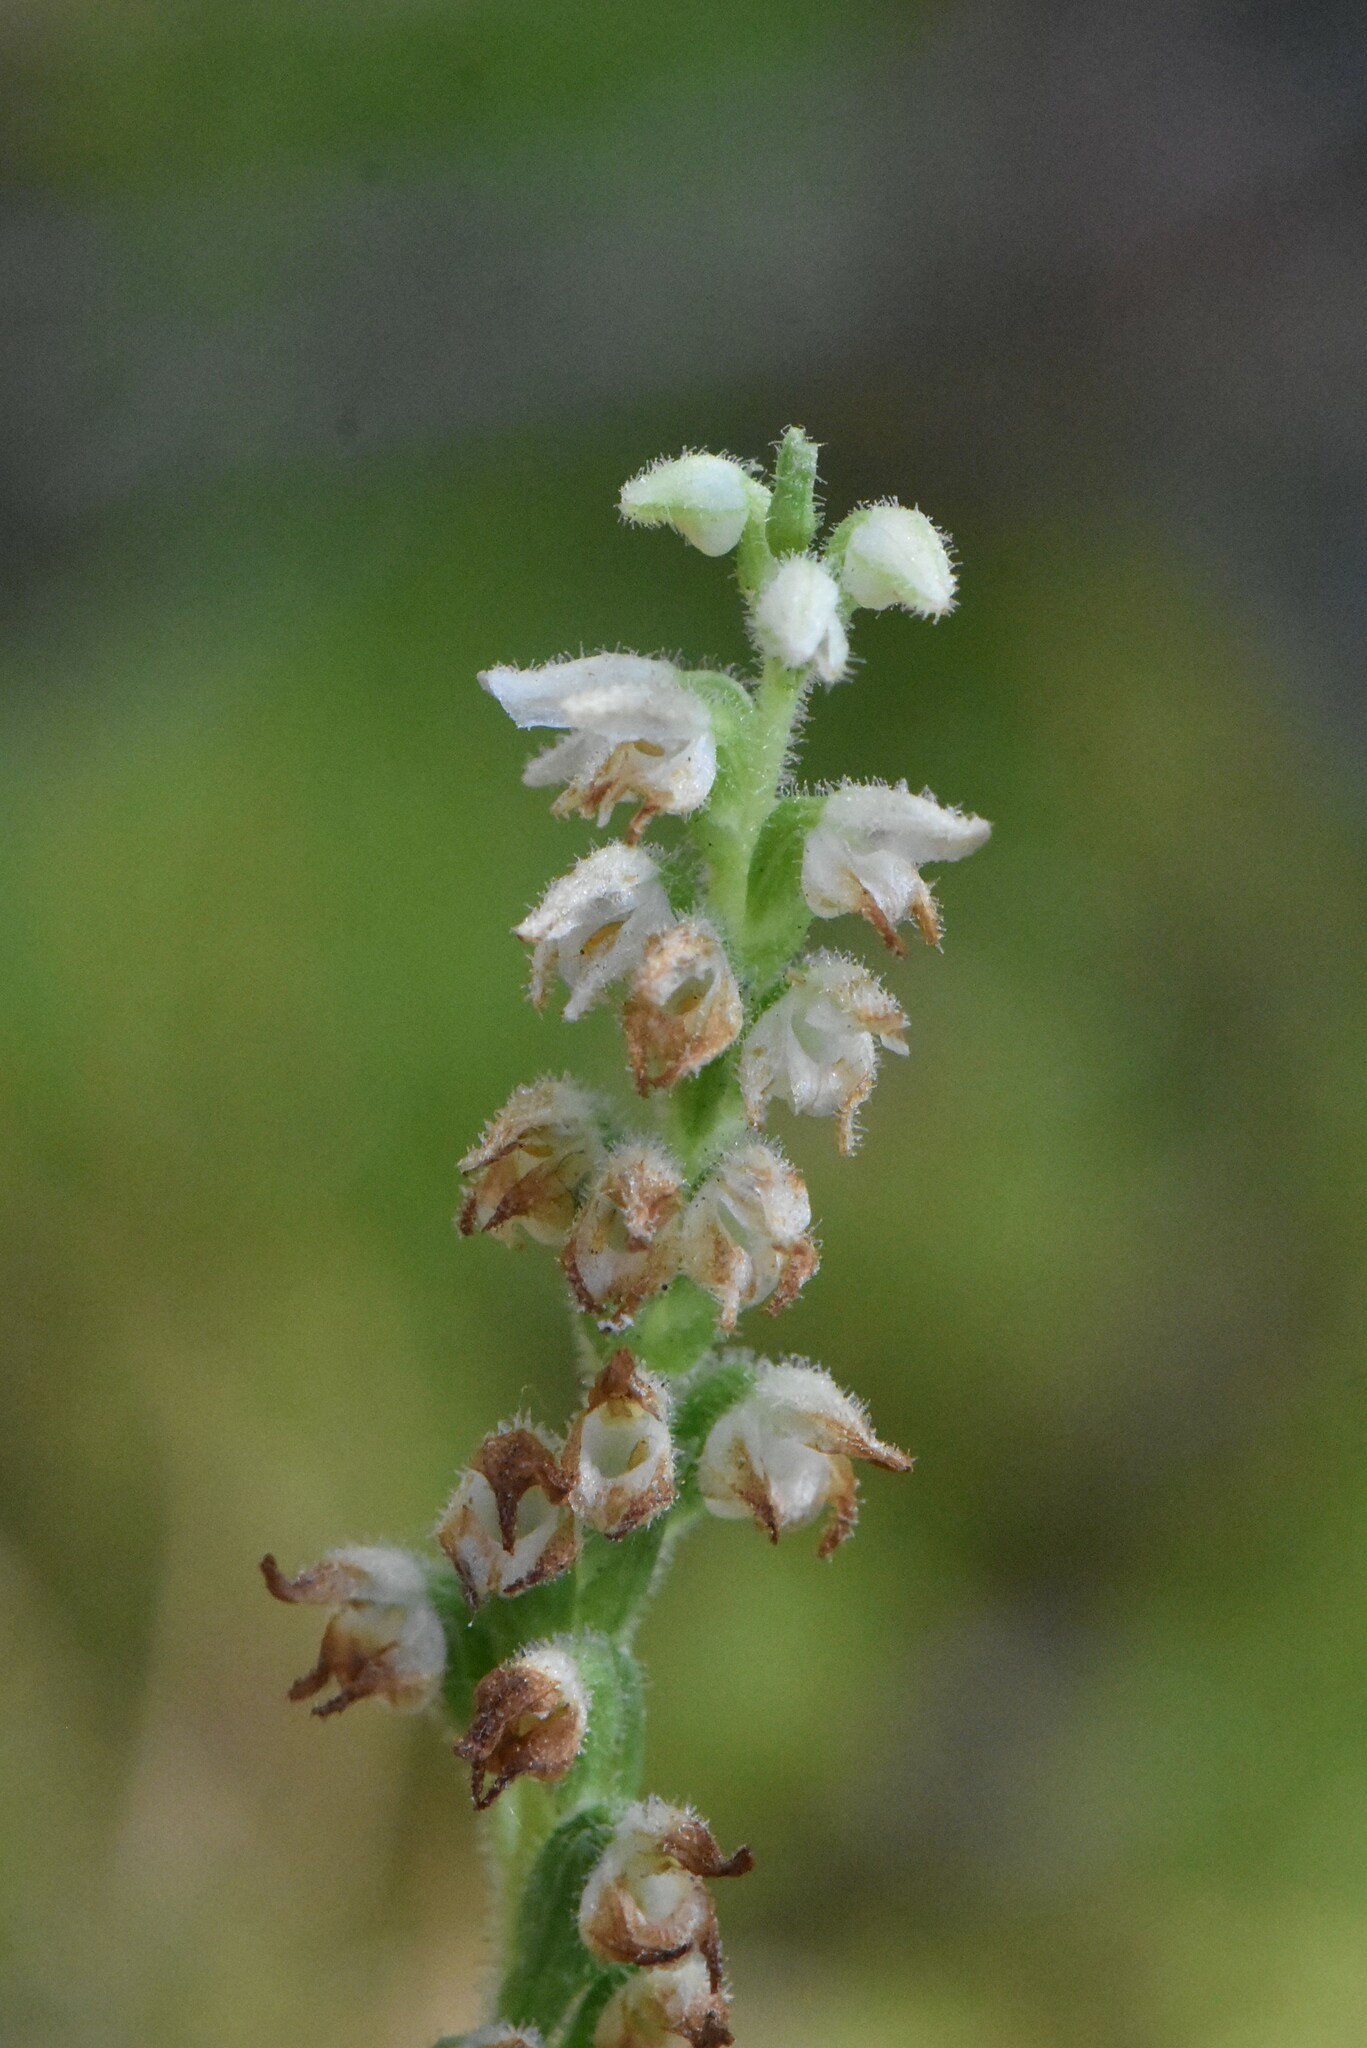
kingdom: Plantae
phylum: Tracheophyta
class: Liliopsida
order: Asparagales
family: Orchidaceae
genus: Goodyera
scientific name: Goodyera repens
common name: Creeping lady's-tresses
